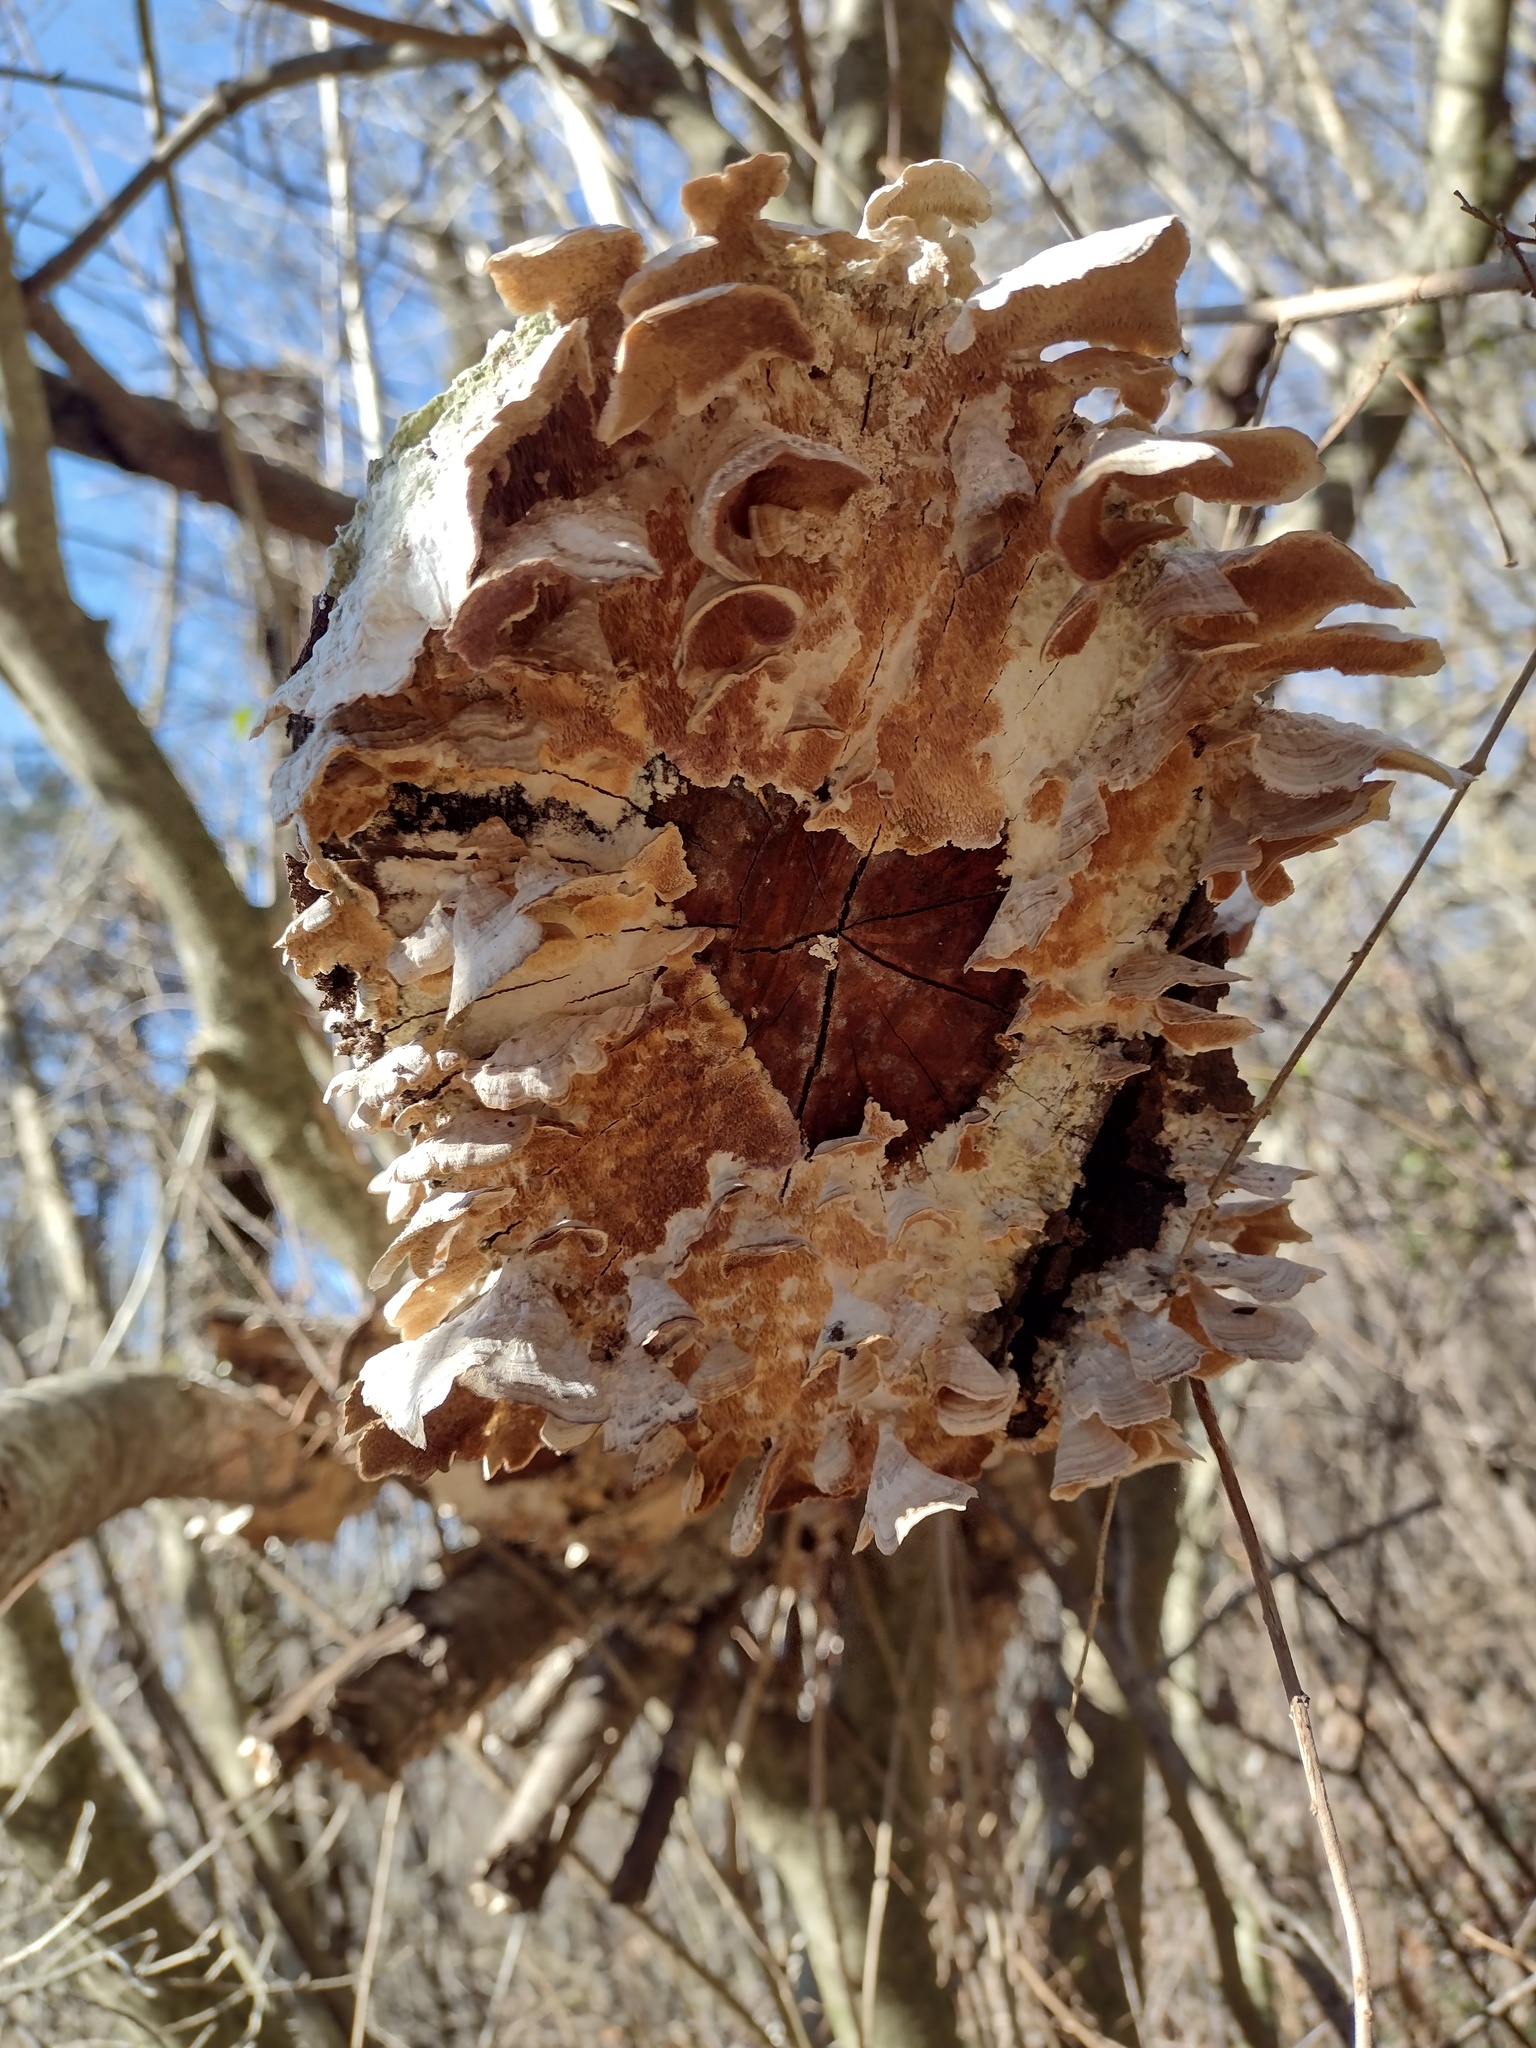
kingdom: Fungi
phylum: Basidiomycota
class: Agaricomycetes
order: Hymenochaetales
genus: Trichaptum
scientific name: Trichaptum biforme
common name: Violet-toothed polypore
